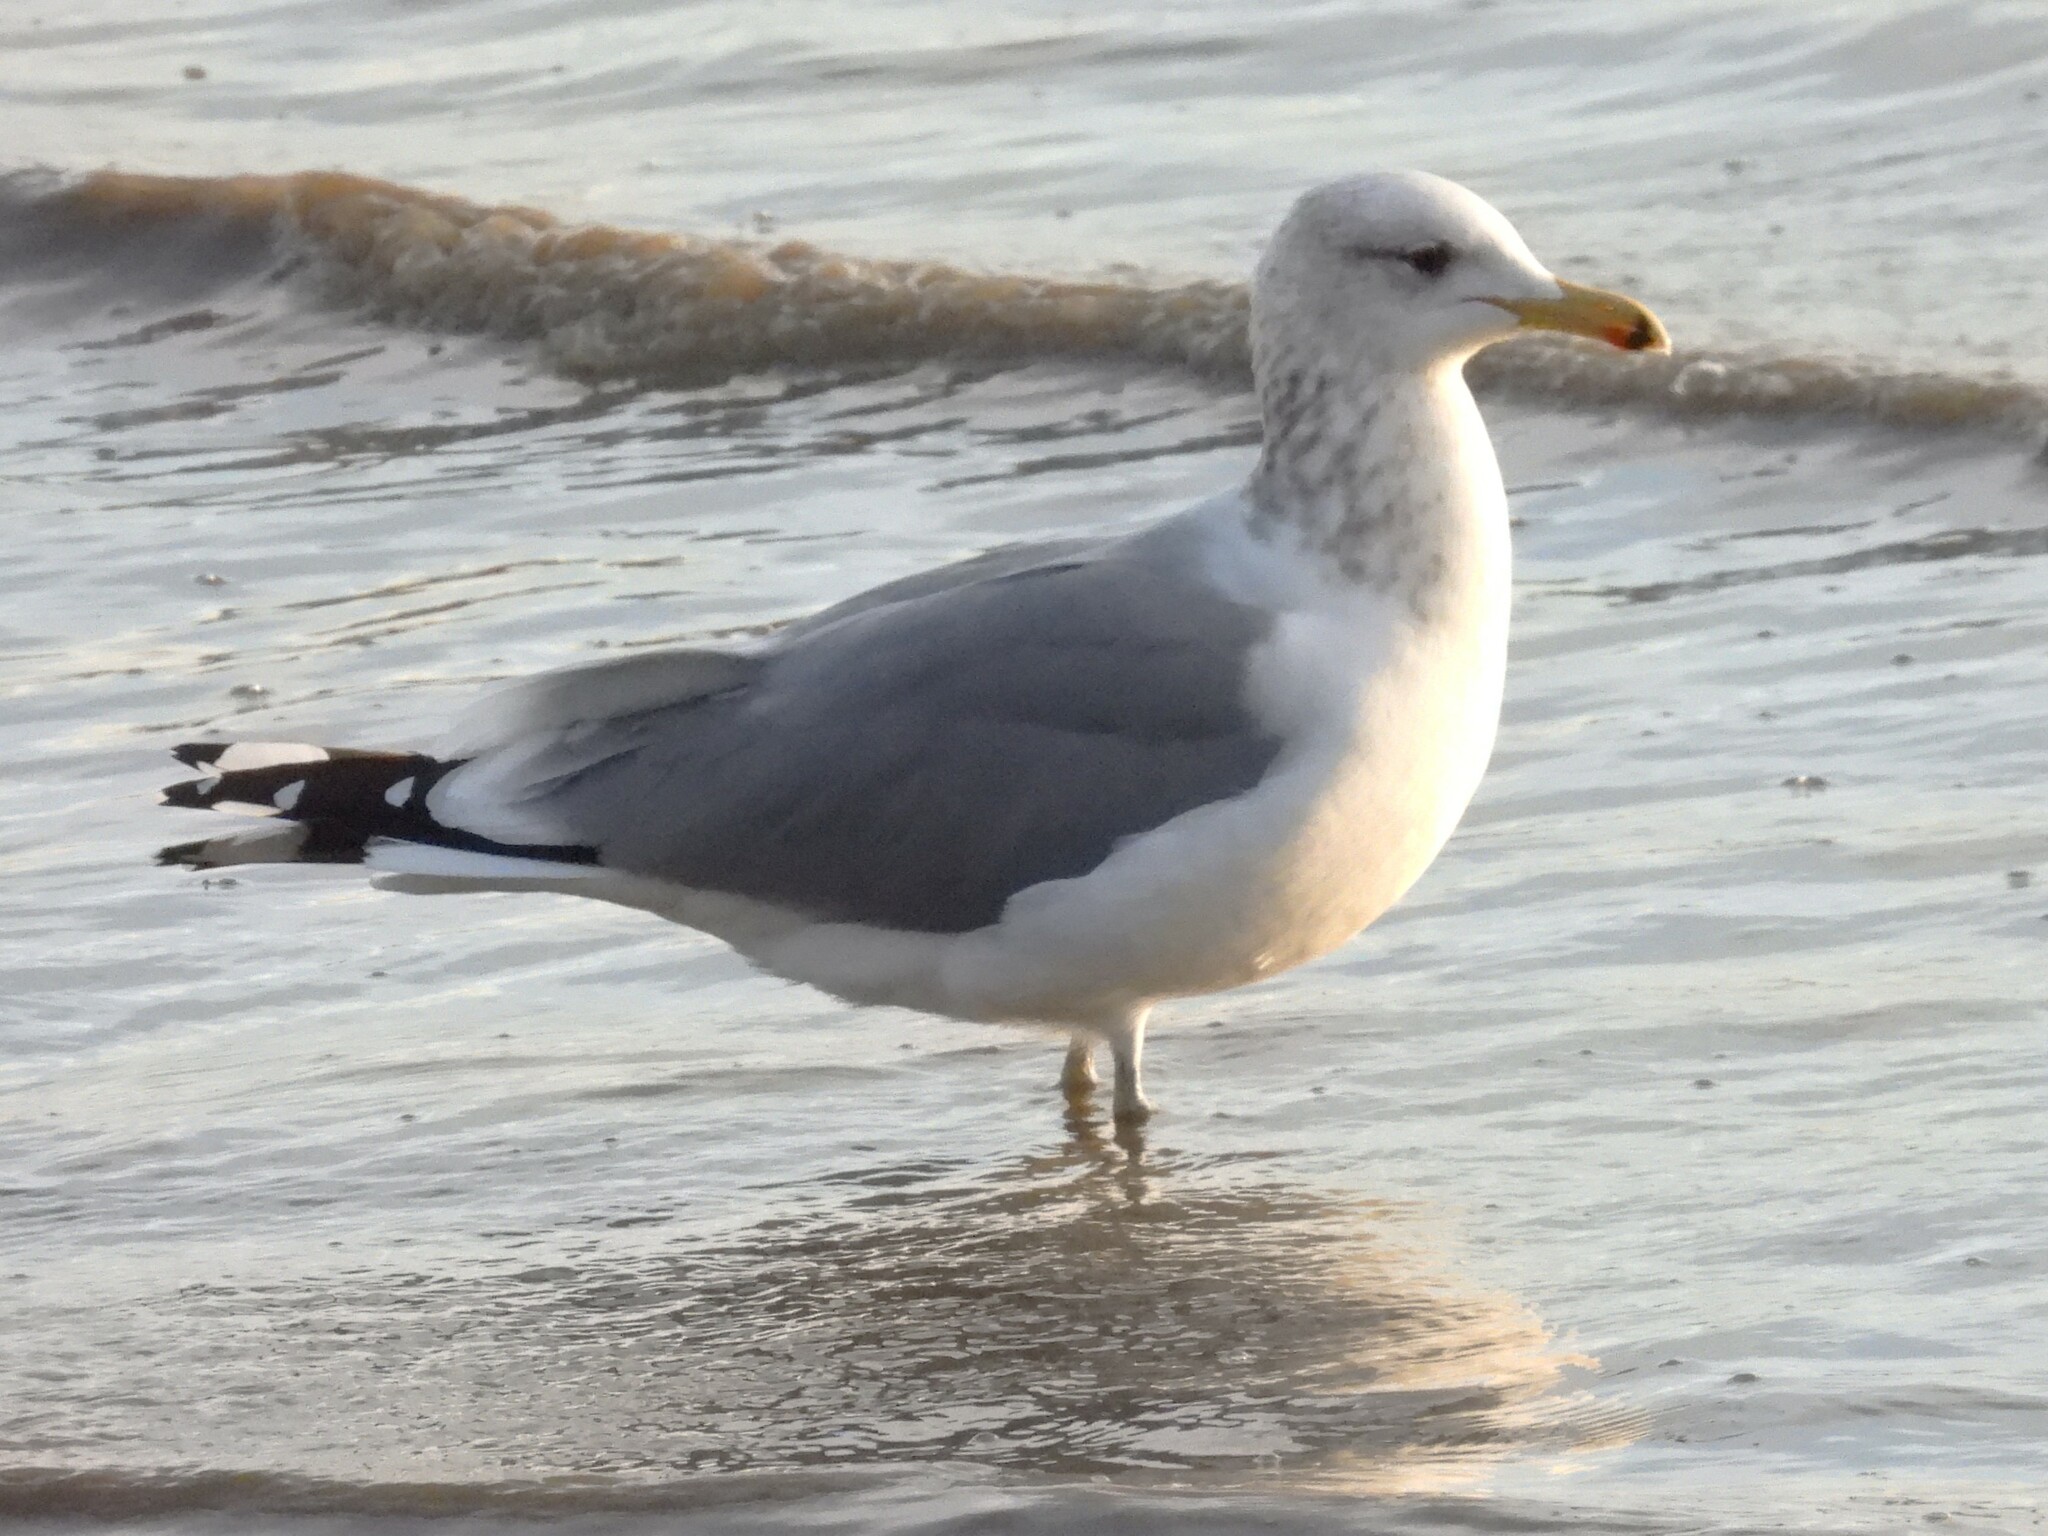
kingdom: Animalia
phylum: Chordata
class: Aves
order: Charadriiformes
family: Laridae
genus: Larus
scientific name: Larus californicus
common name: California gull
